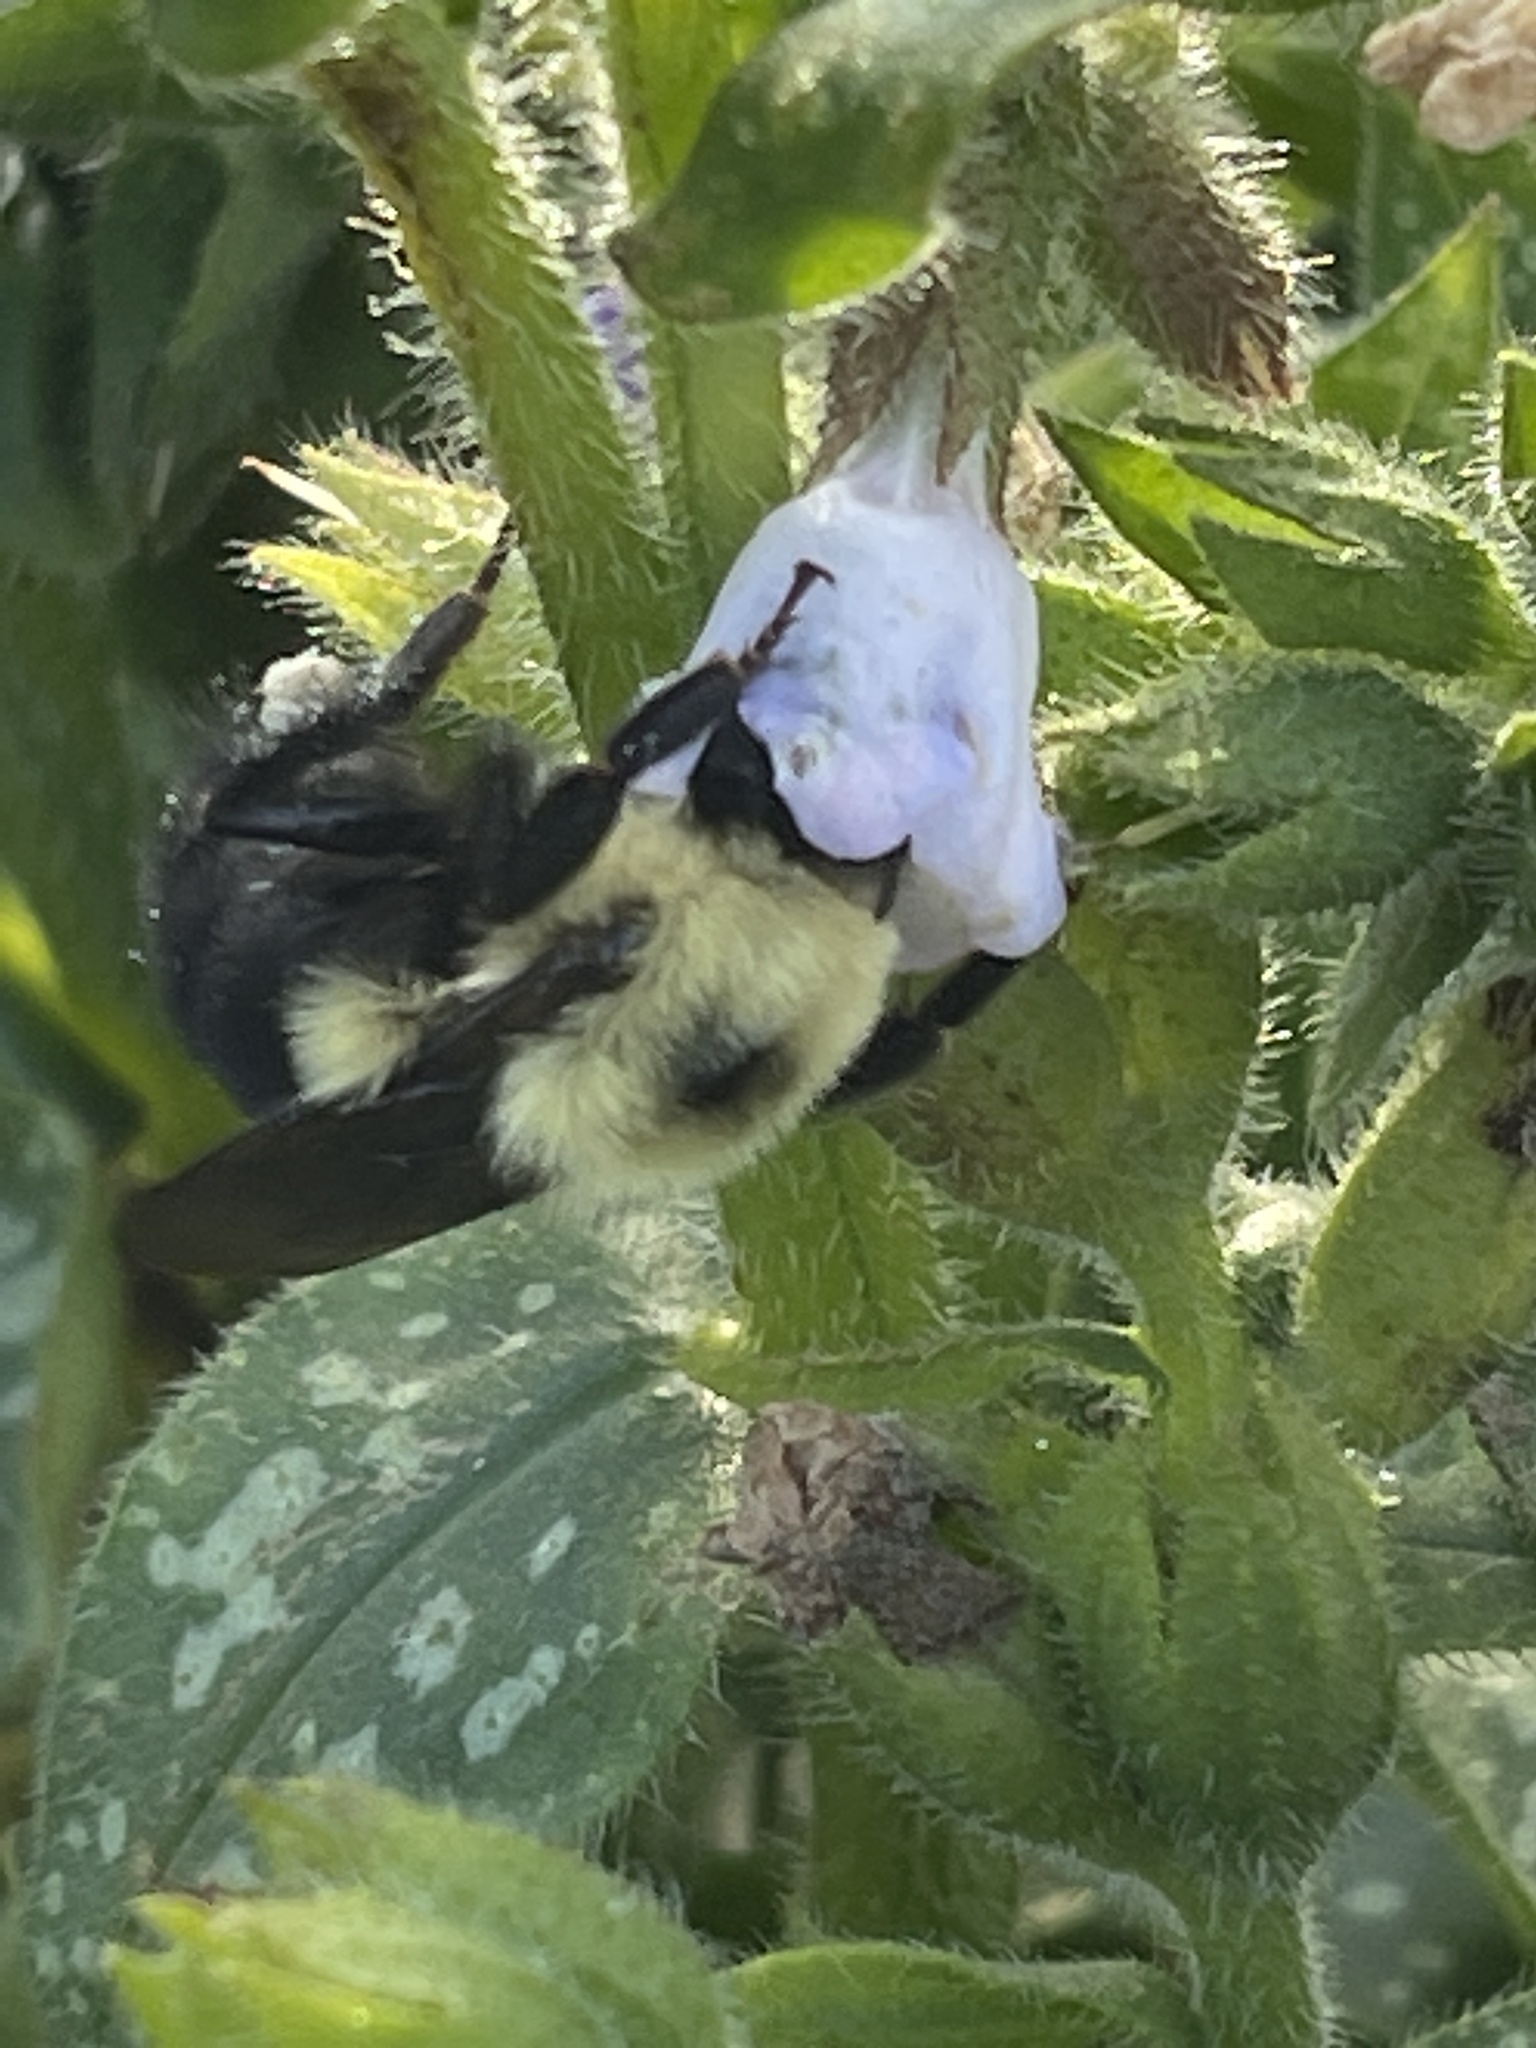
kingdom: Animalia
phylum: Arthropoda
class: Insecta
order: Hymenoptera
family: Apidae
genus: Bombus
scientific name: Bombus bimaculatus
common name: Two-spotted bumble bee
